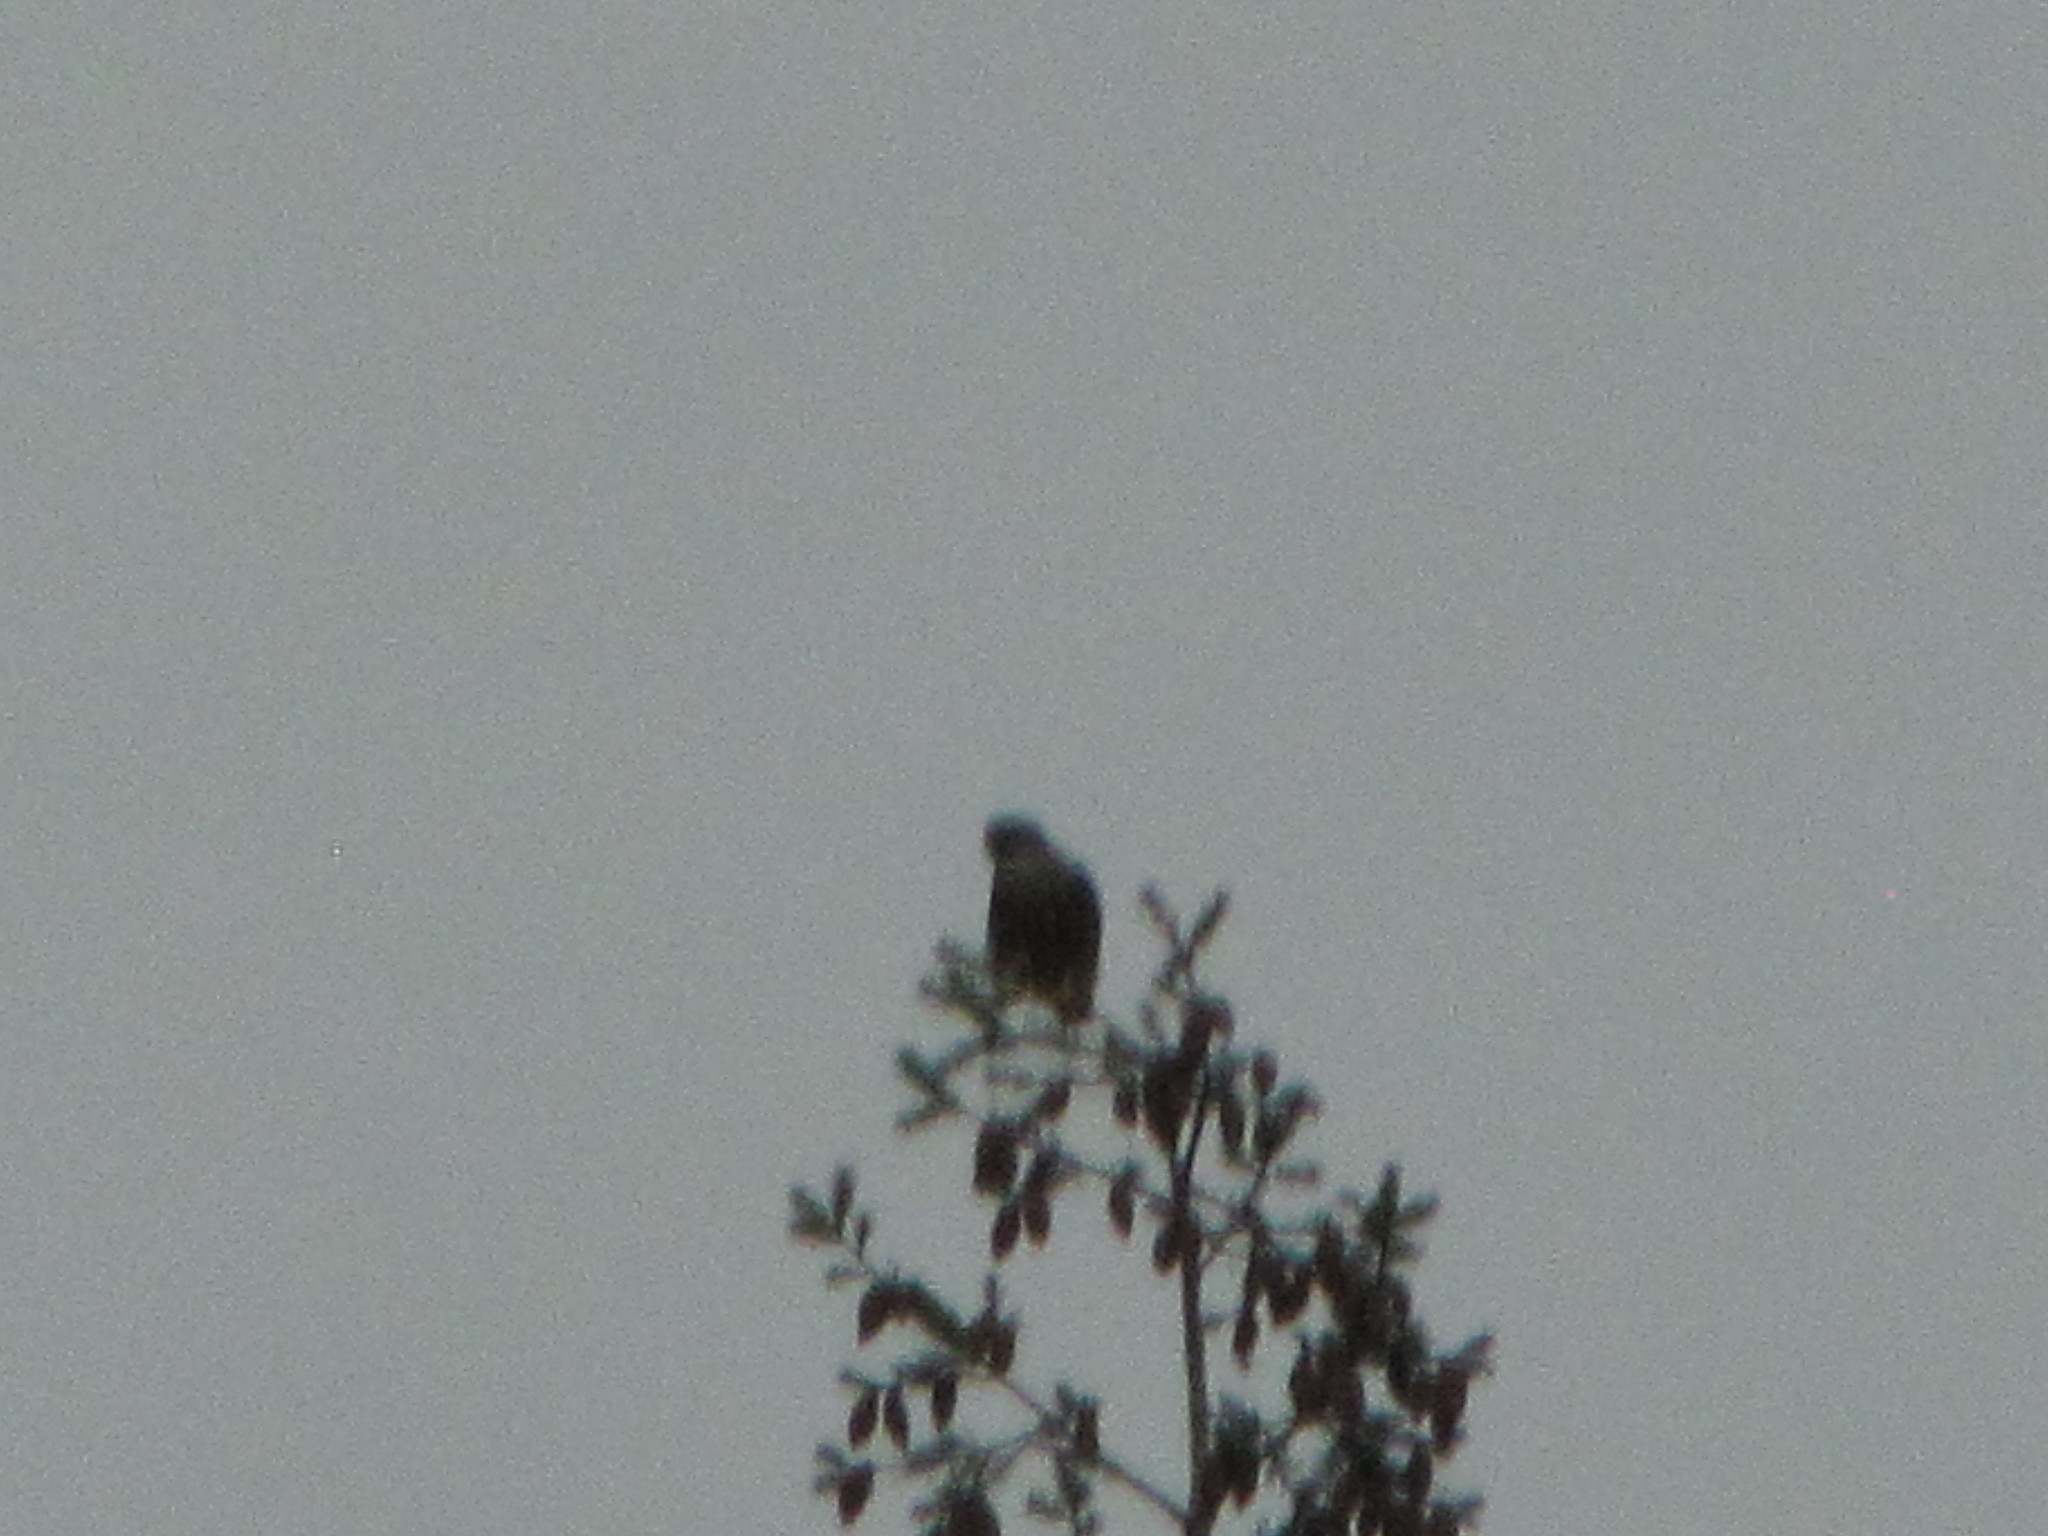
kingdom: Animalia
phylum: Chordata
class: Aves
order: Falconiformes
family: Falconidae
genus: Falco
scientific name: Falco columbarius
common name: Merlin
